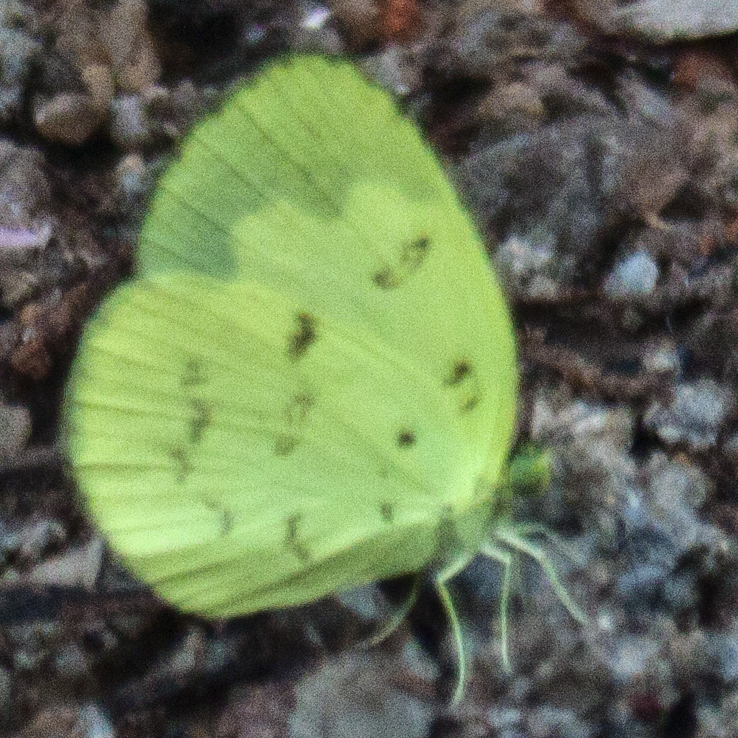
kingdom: Animalia
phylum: Arthropoda
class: Insecta
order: Lepidoptera
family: Pieridae
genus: Eurema
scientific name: Eurema ada
